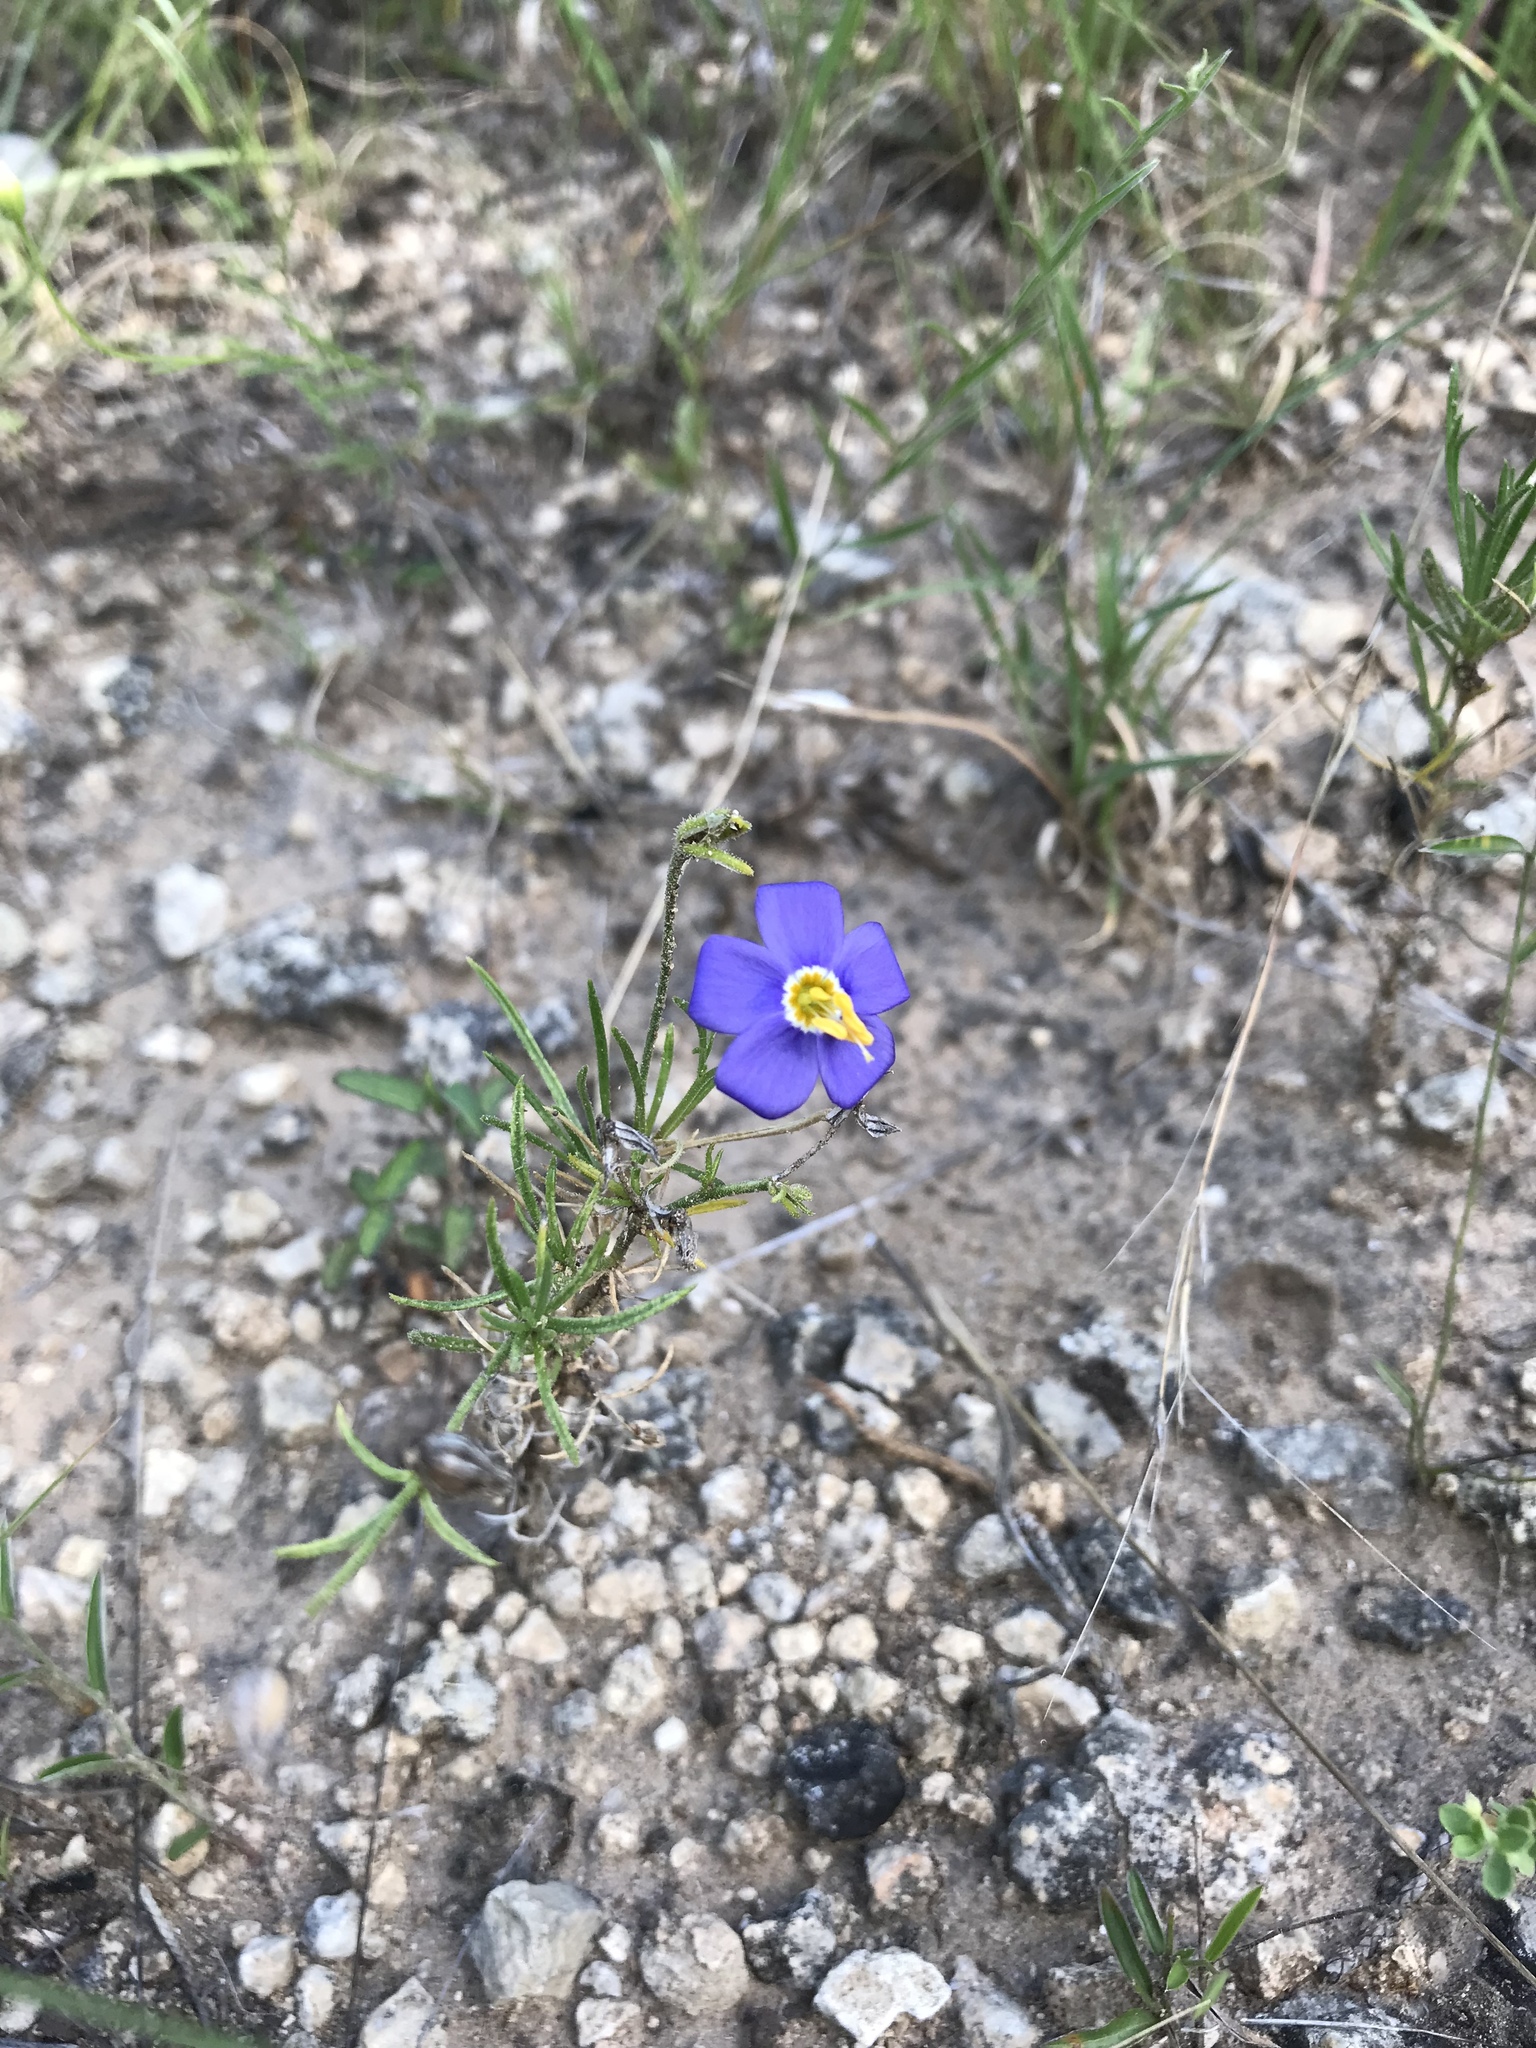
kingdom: Plantae
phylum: Tracheophyta
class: Magnoliopsida
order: Ericales
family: Polemoniaceae
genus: Giliastrum
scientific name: Giliastrum rigidulum
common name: Bluebowls
